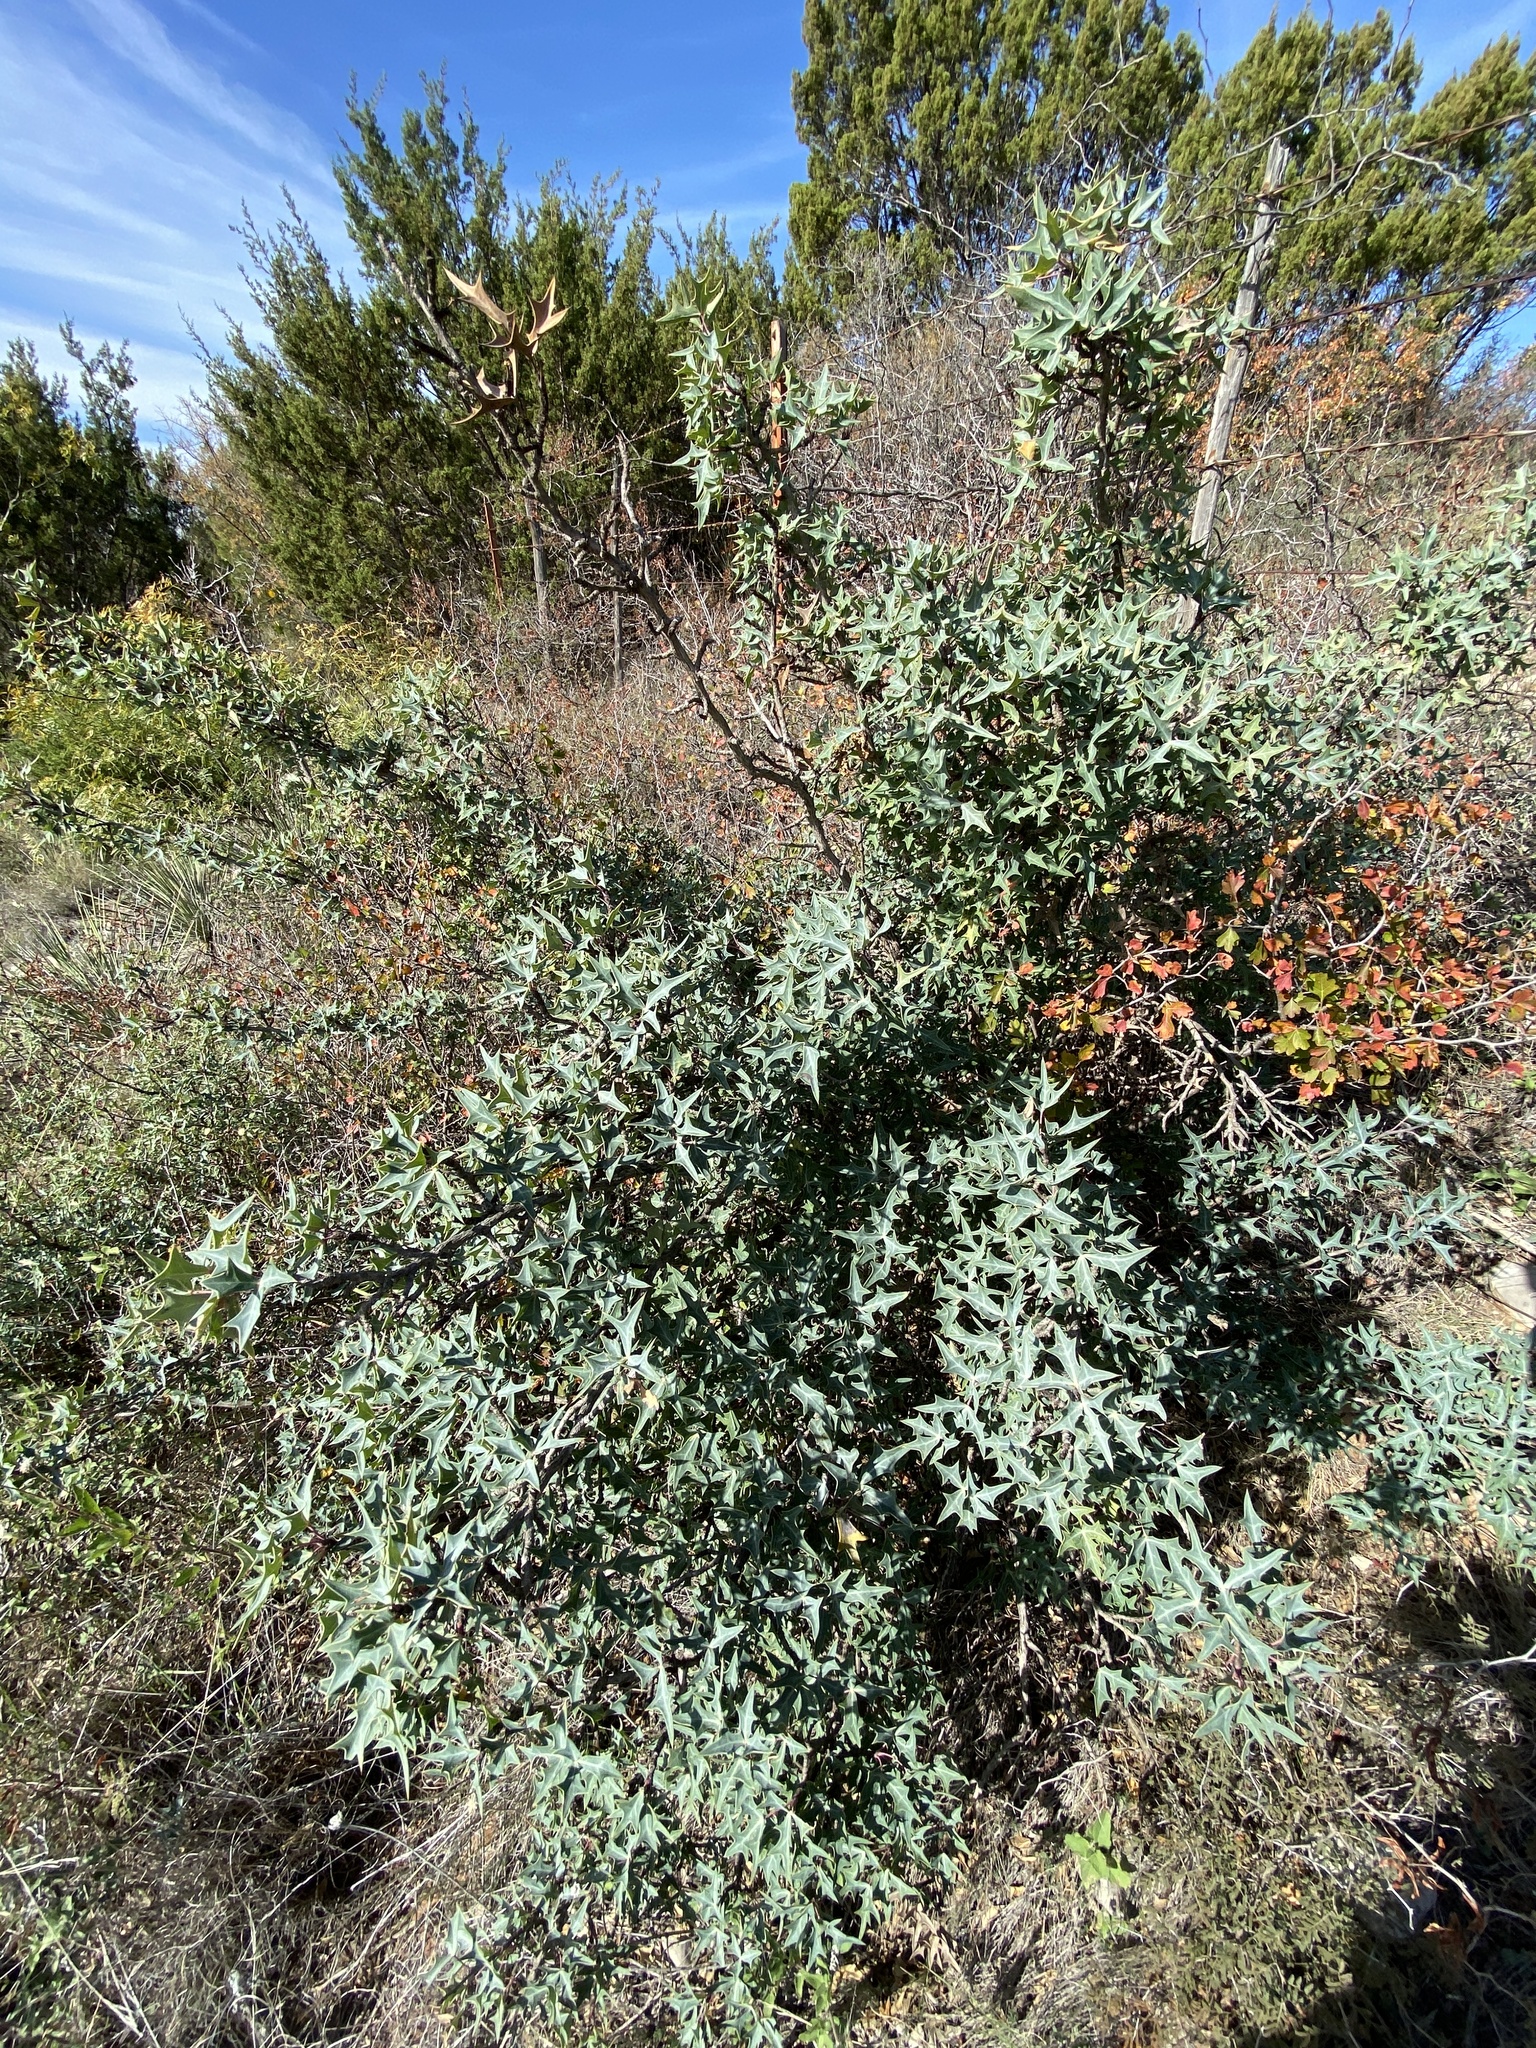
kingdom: Plantae
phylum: Tracheophyta
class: Magnoliopsida
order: Ranunculales
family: Berberidaceae
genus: Alloberberis
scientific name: Alloberberis trifoliolata
